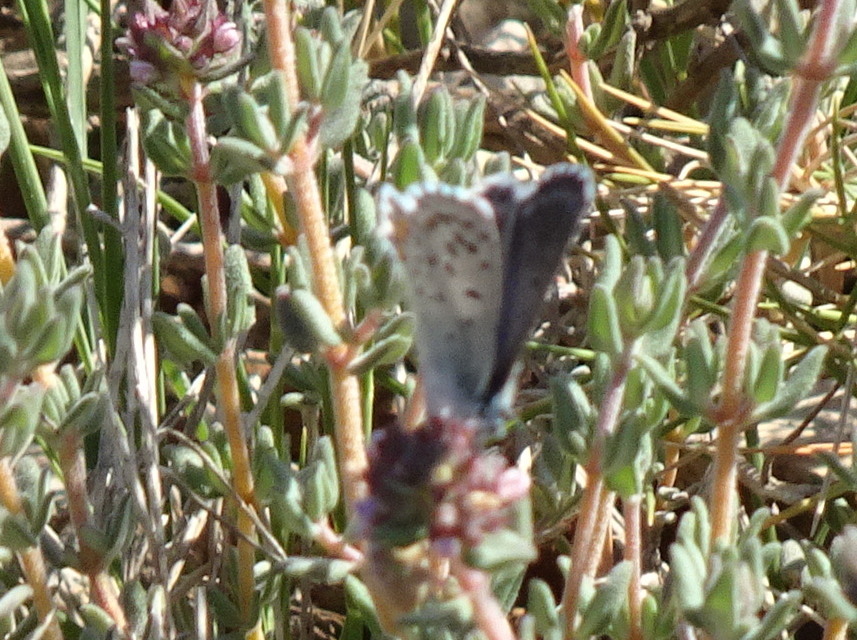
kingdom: Animalia
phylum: Arthropoda
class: Insecta
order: Lepidoptera
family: Lycaenidae
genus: Pseudophilotes
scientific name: Pseudophilotes baton
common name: Baton blue
